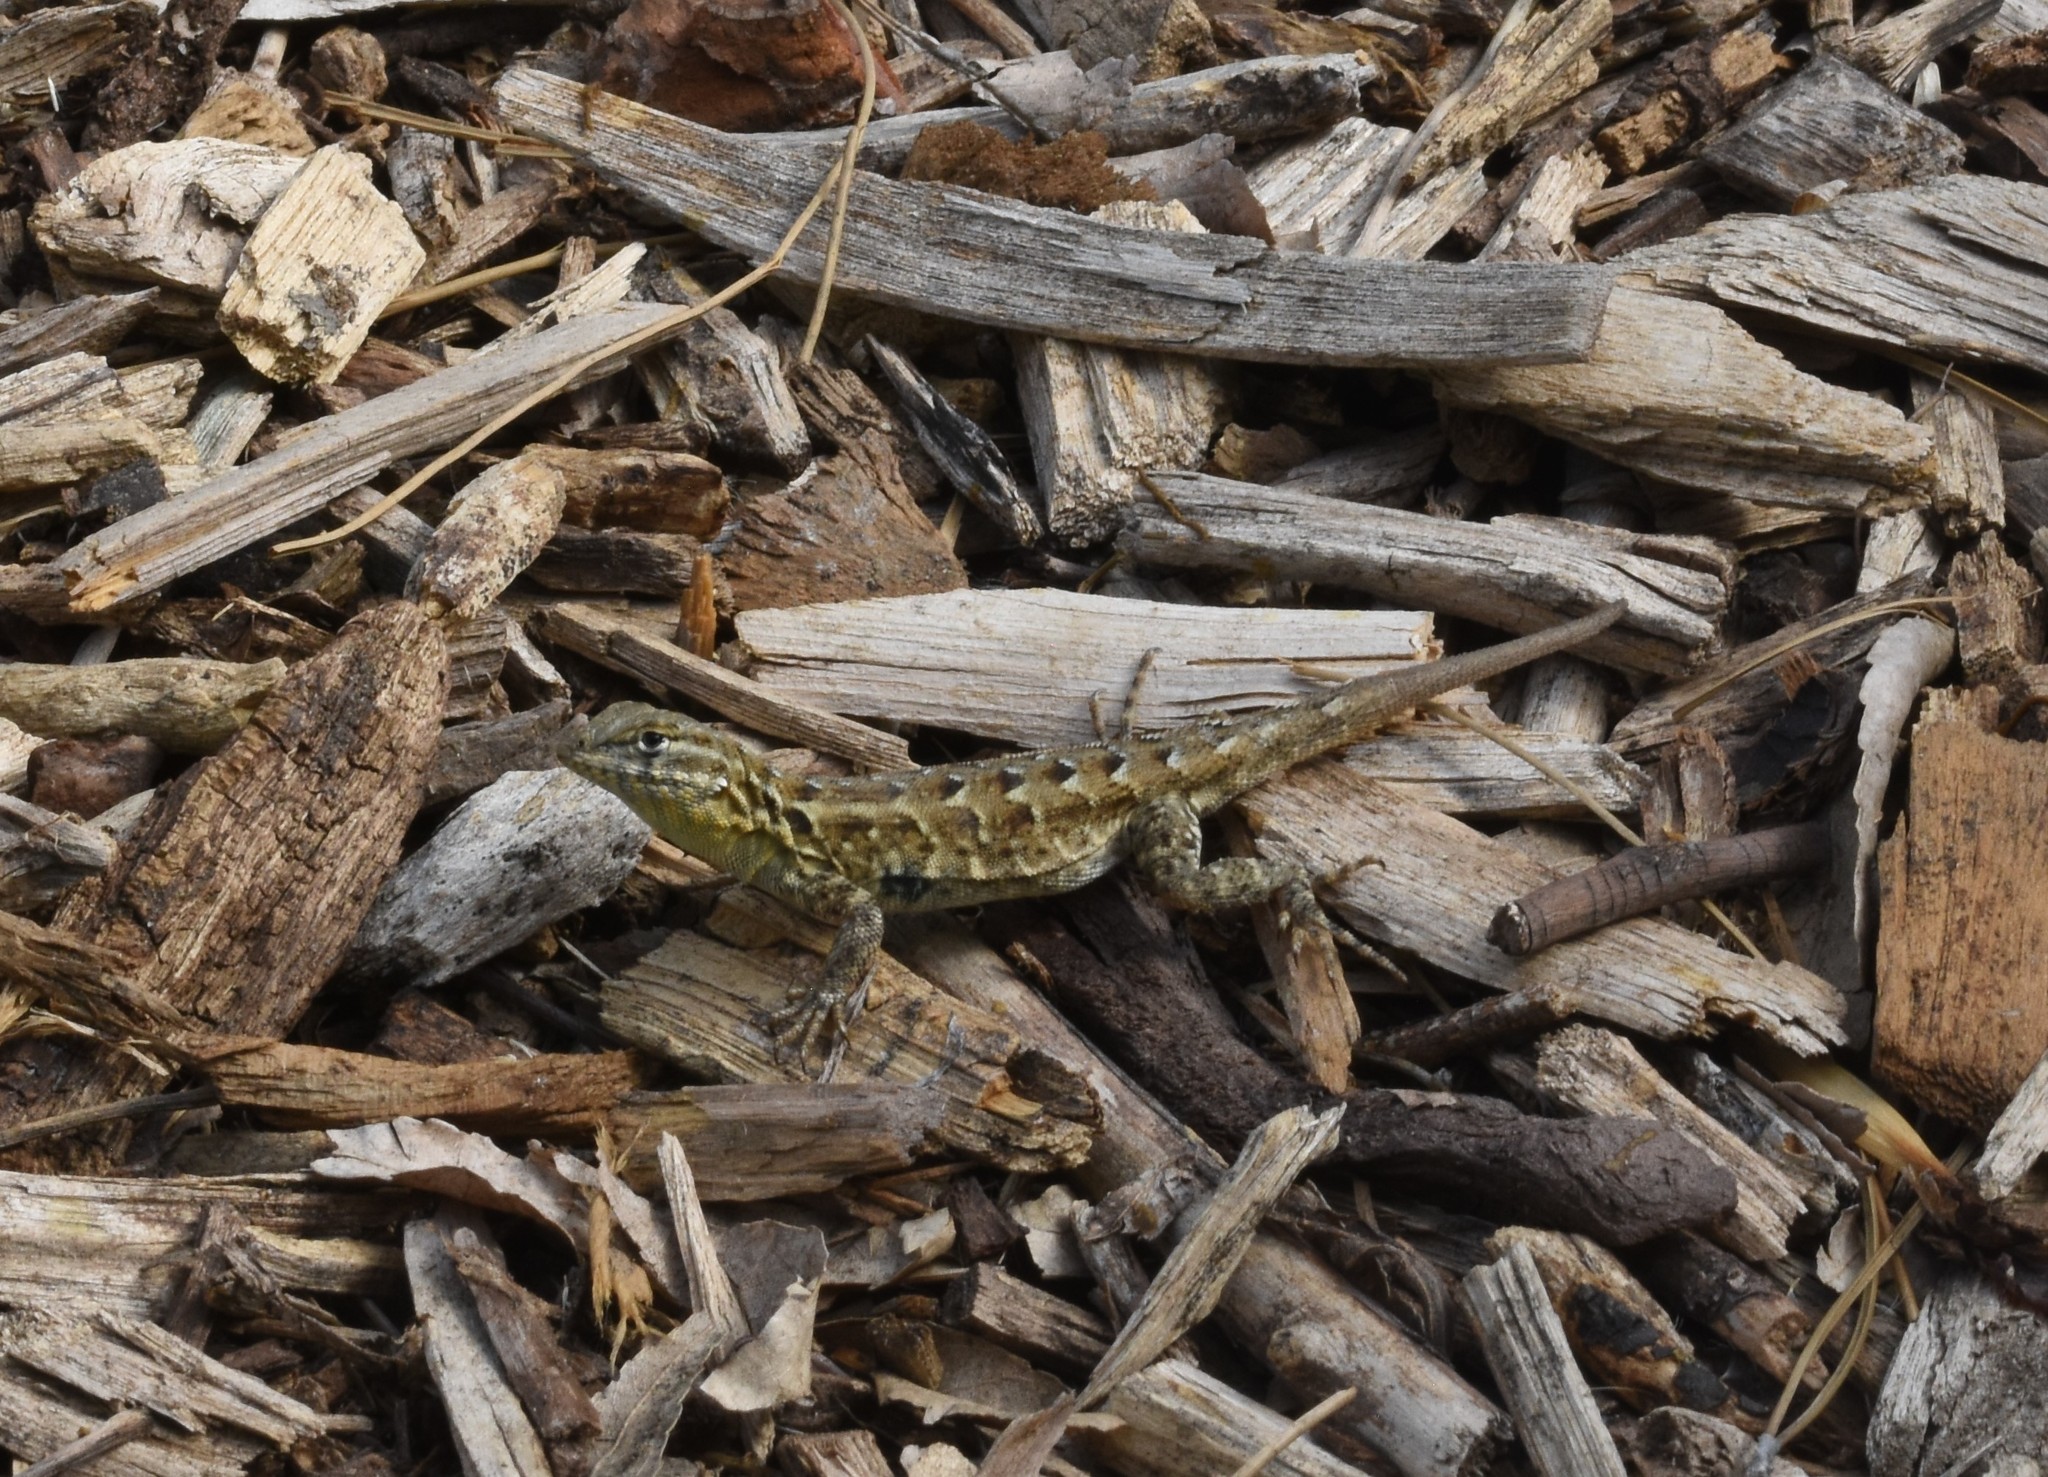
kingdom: Animalia
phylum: Chordata
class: Squamata
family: Phrynosomatidae
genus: Uta
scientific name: Uta stansburiana
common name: Side-blotched lizard
